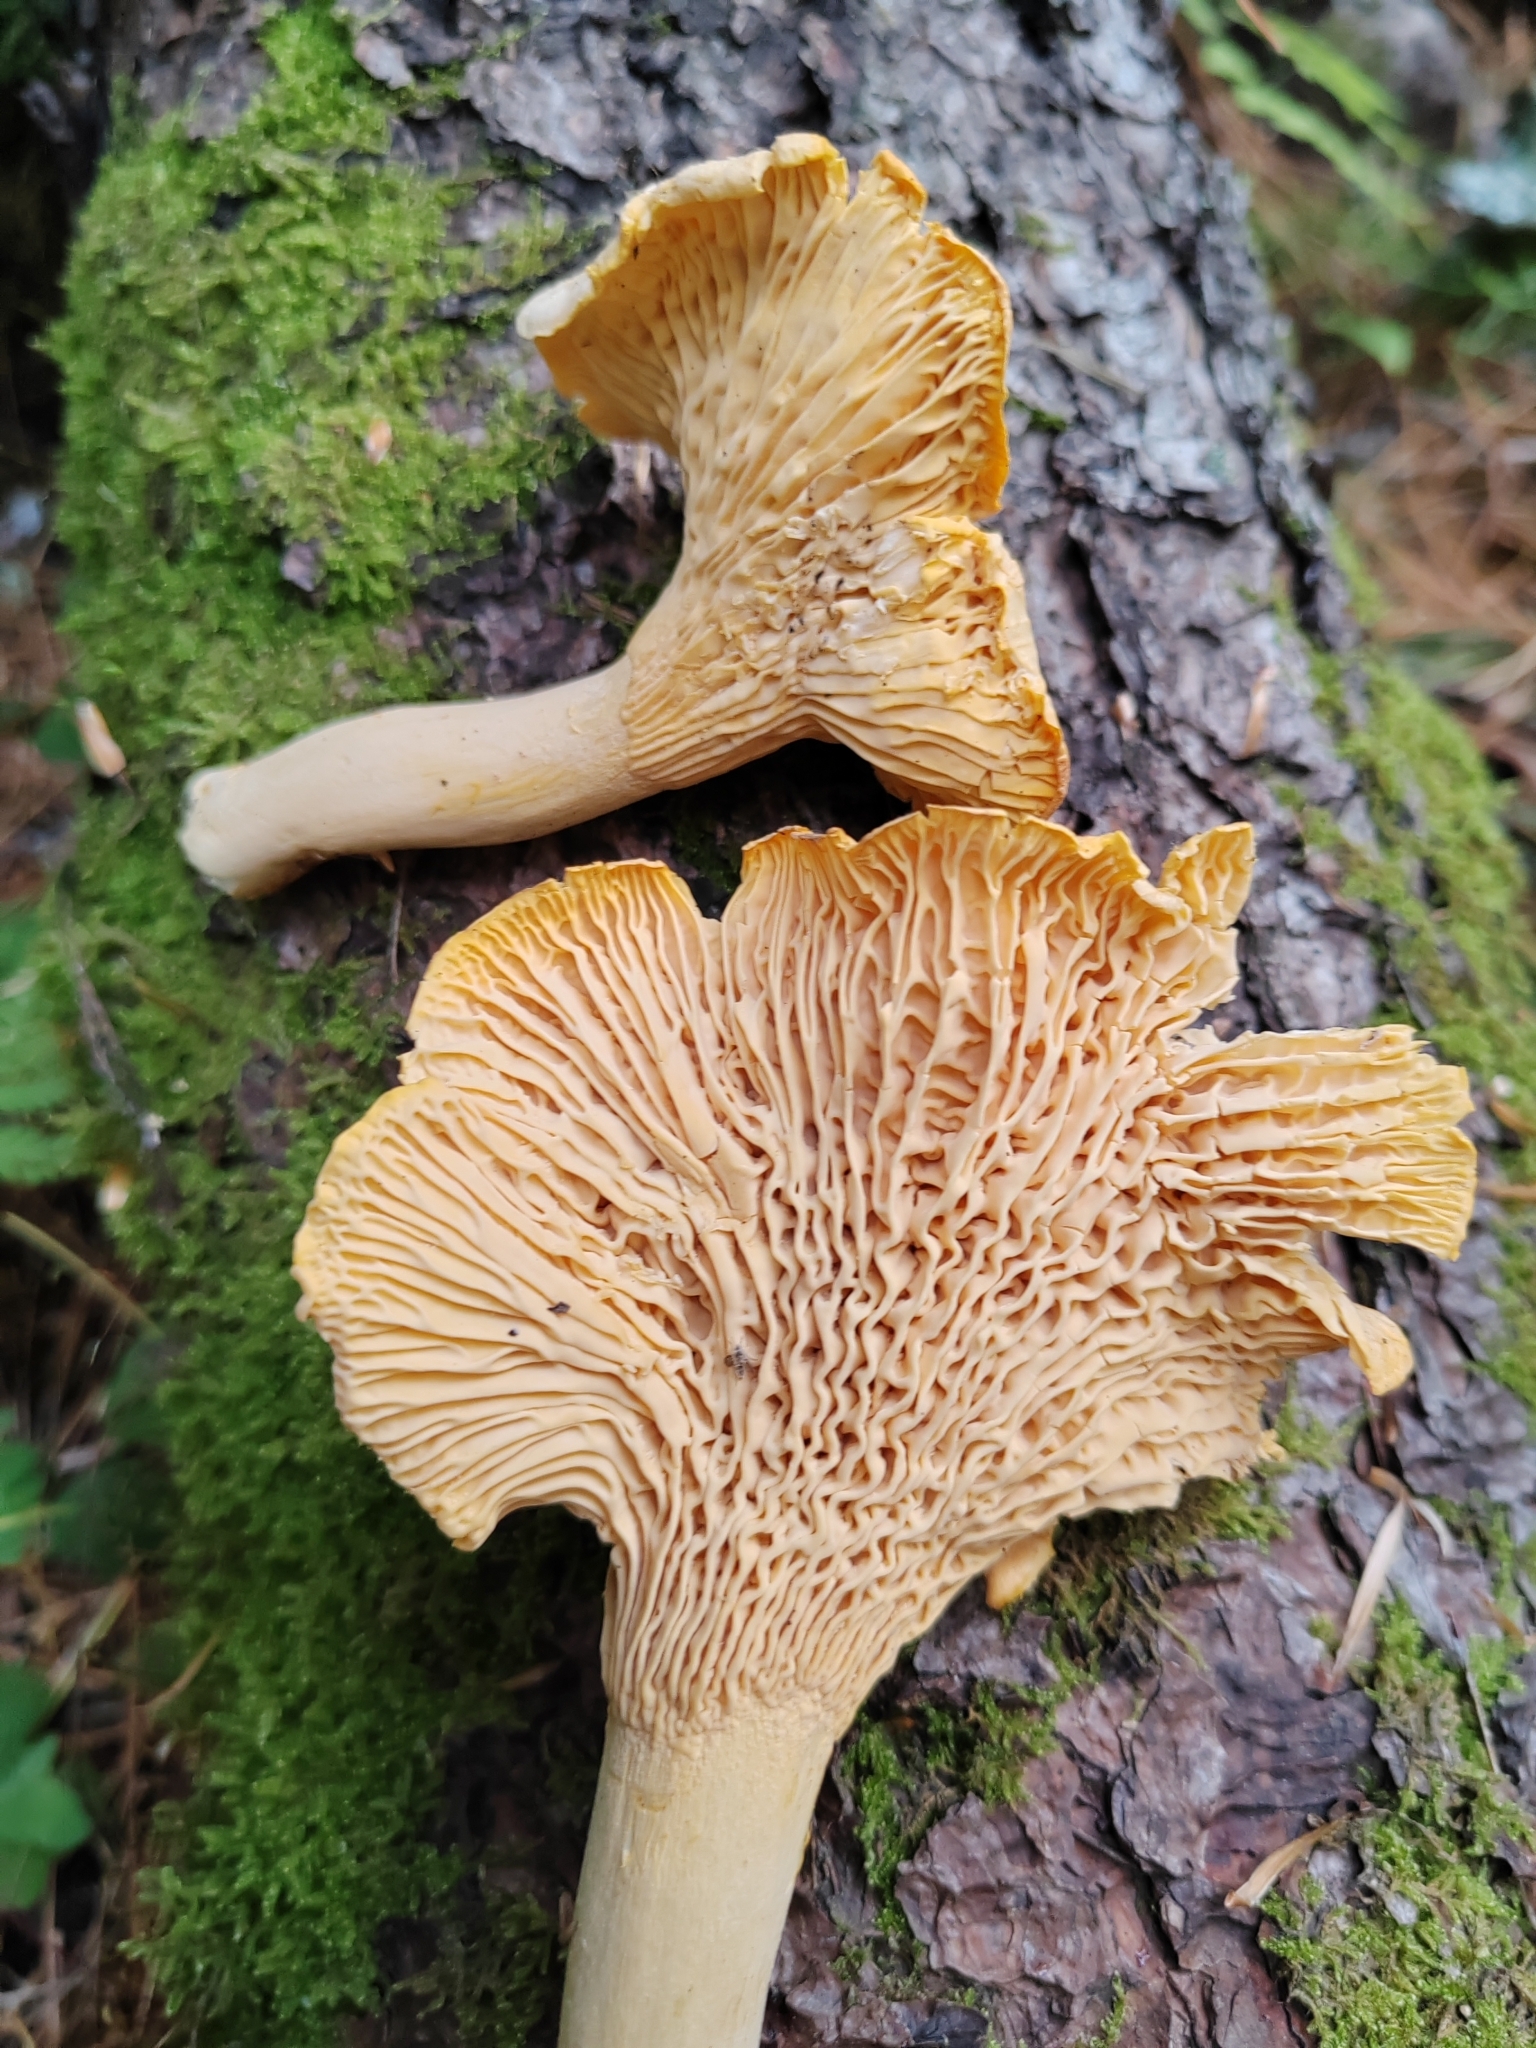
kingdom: Fungi
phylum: Basidiomycota
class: Agaricomycetes
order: Cantharellales
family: Hydnaceae
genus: Cantharellus
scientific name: Cantharellus cibarius
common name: Chanterelle
